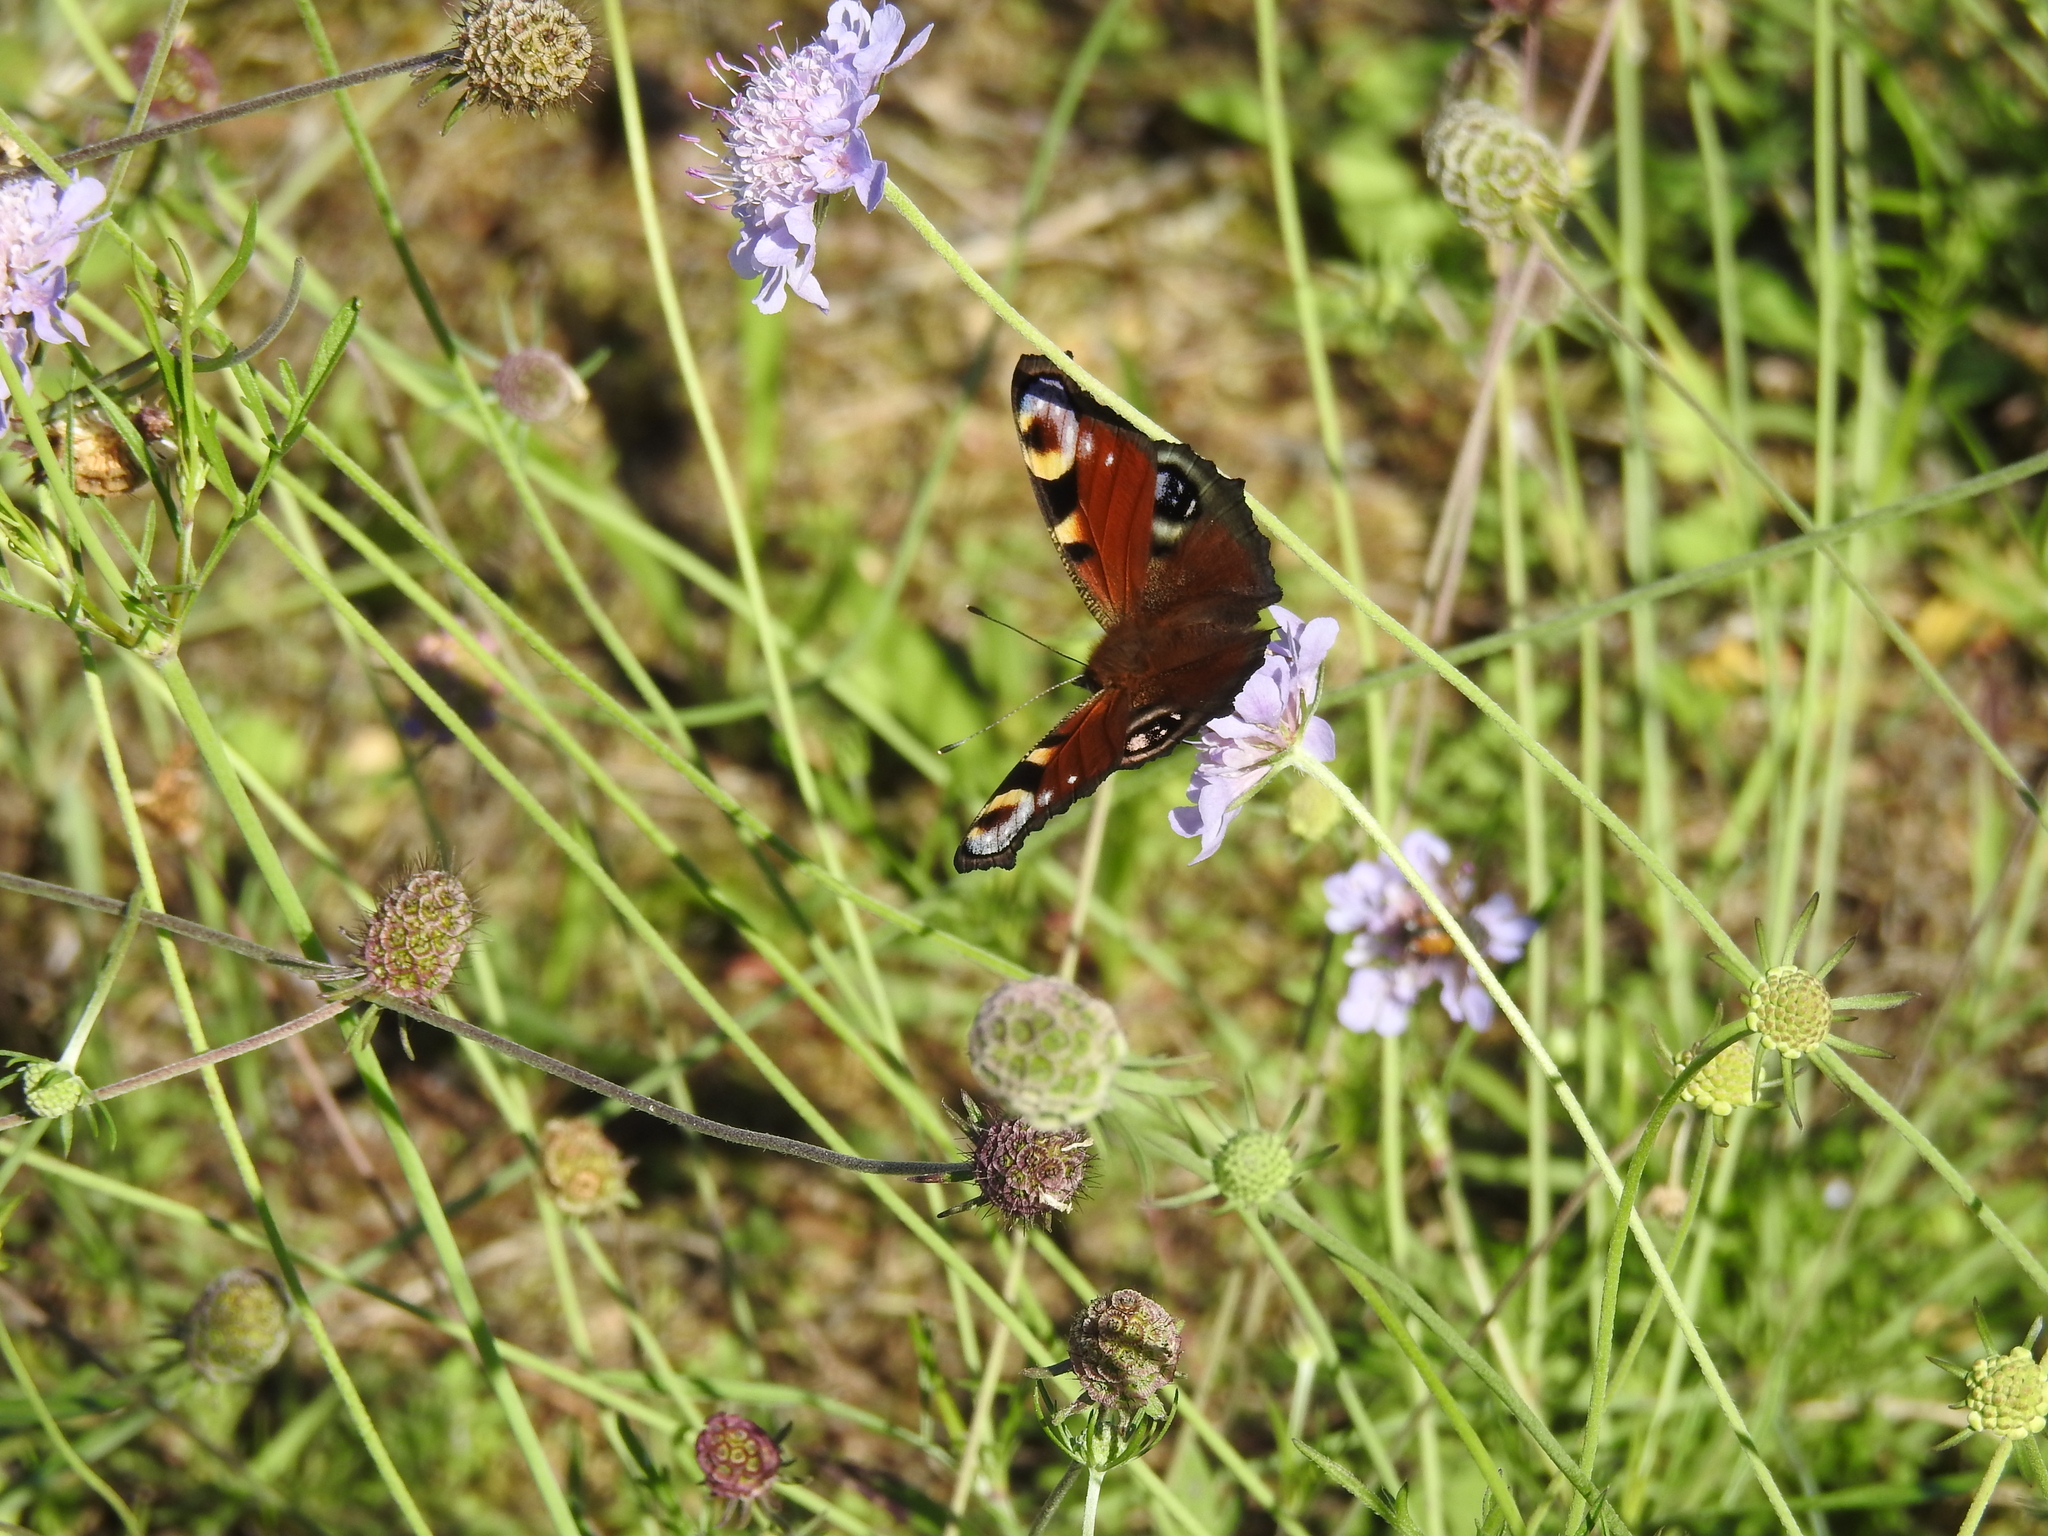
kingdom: Animalia
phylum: Arthropoda
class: Insecta
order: Lepidoptera
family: Nymphalidae
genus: Aglais
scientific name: Aglais io
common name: Peacock
